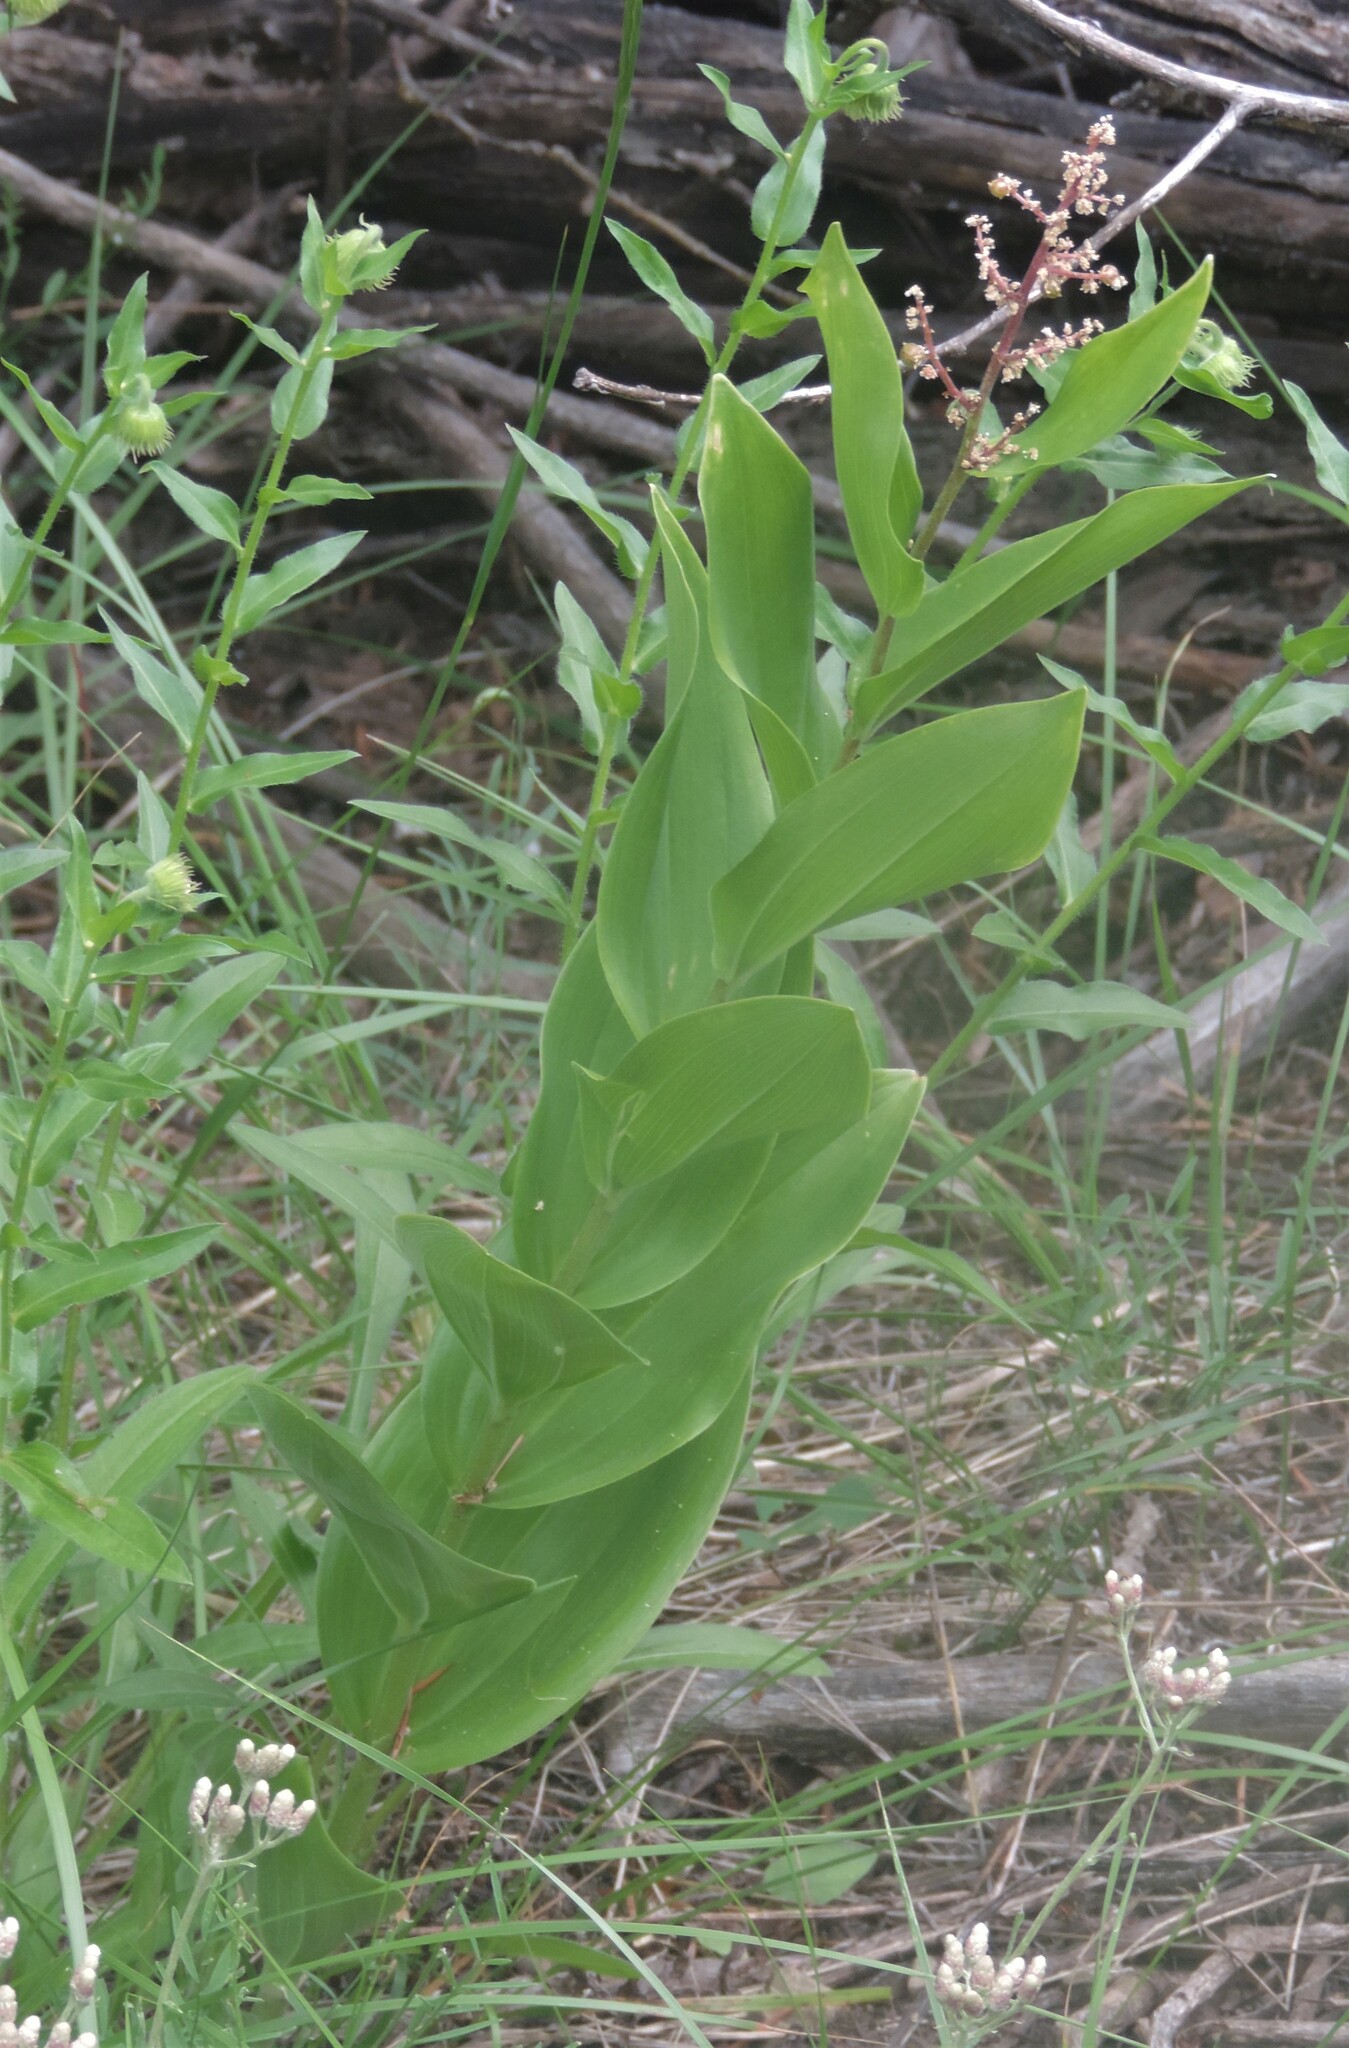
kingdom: Plantae
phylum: Tracheophyta
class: Liliopsida
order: Asparagales
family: Asparagaceae
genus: Maianthemum
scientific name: Maianthemum racemosum
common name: False spikenard
